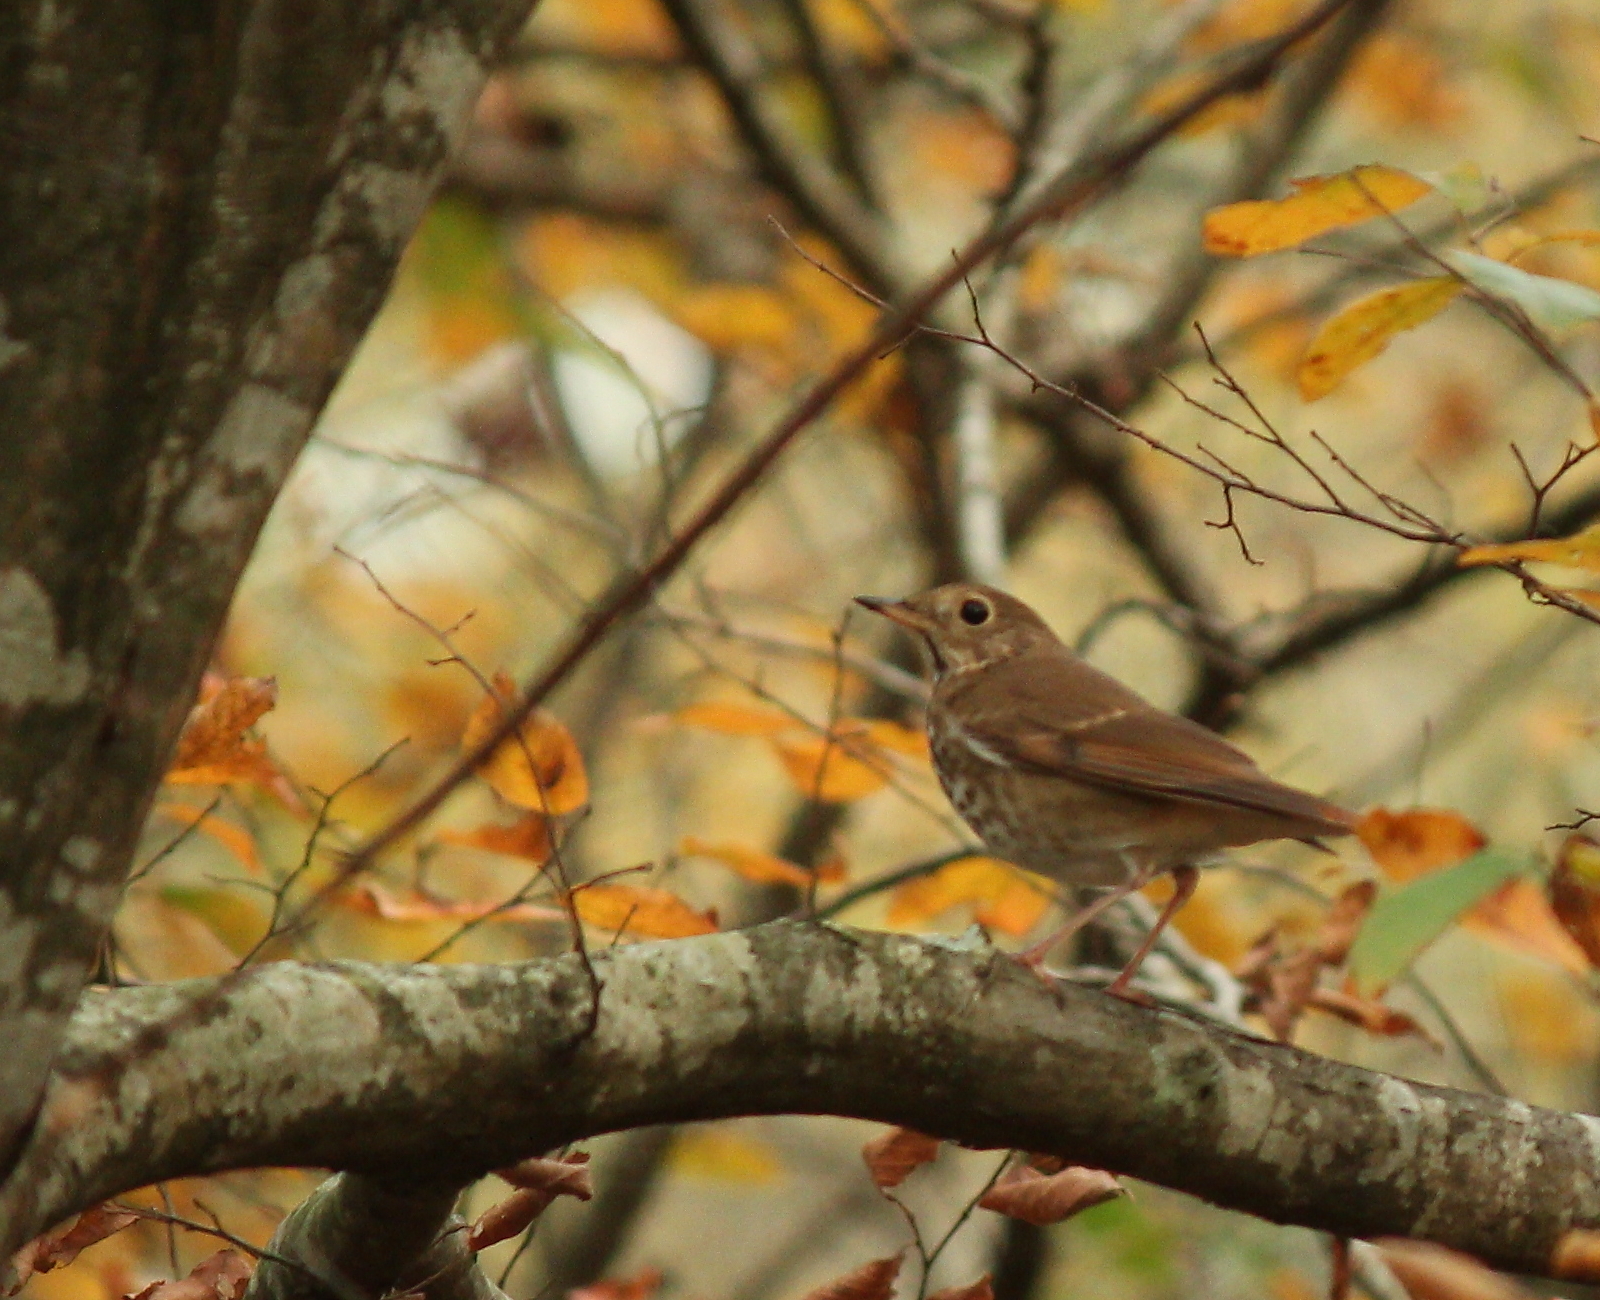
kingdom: Animalia
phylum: Chordata
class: Aves
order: Passeriformes
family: Turdidae
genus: Catharus
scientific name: Catharus guttatus
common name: Hermit thrush
